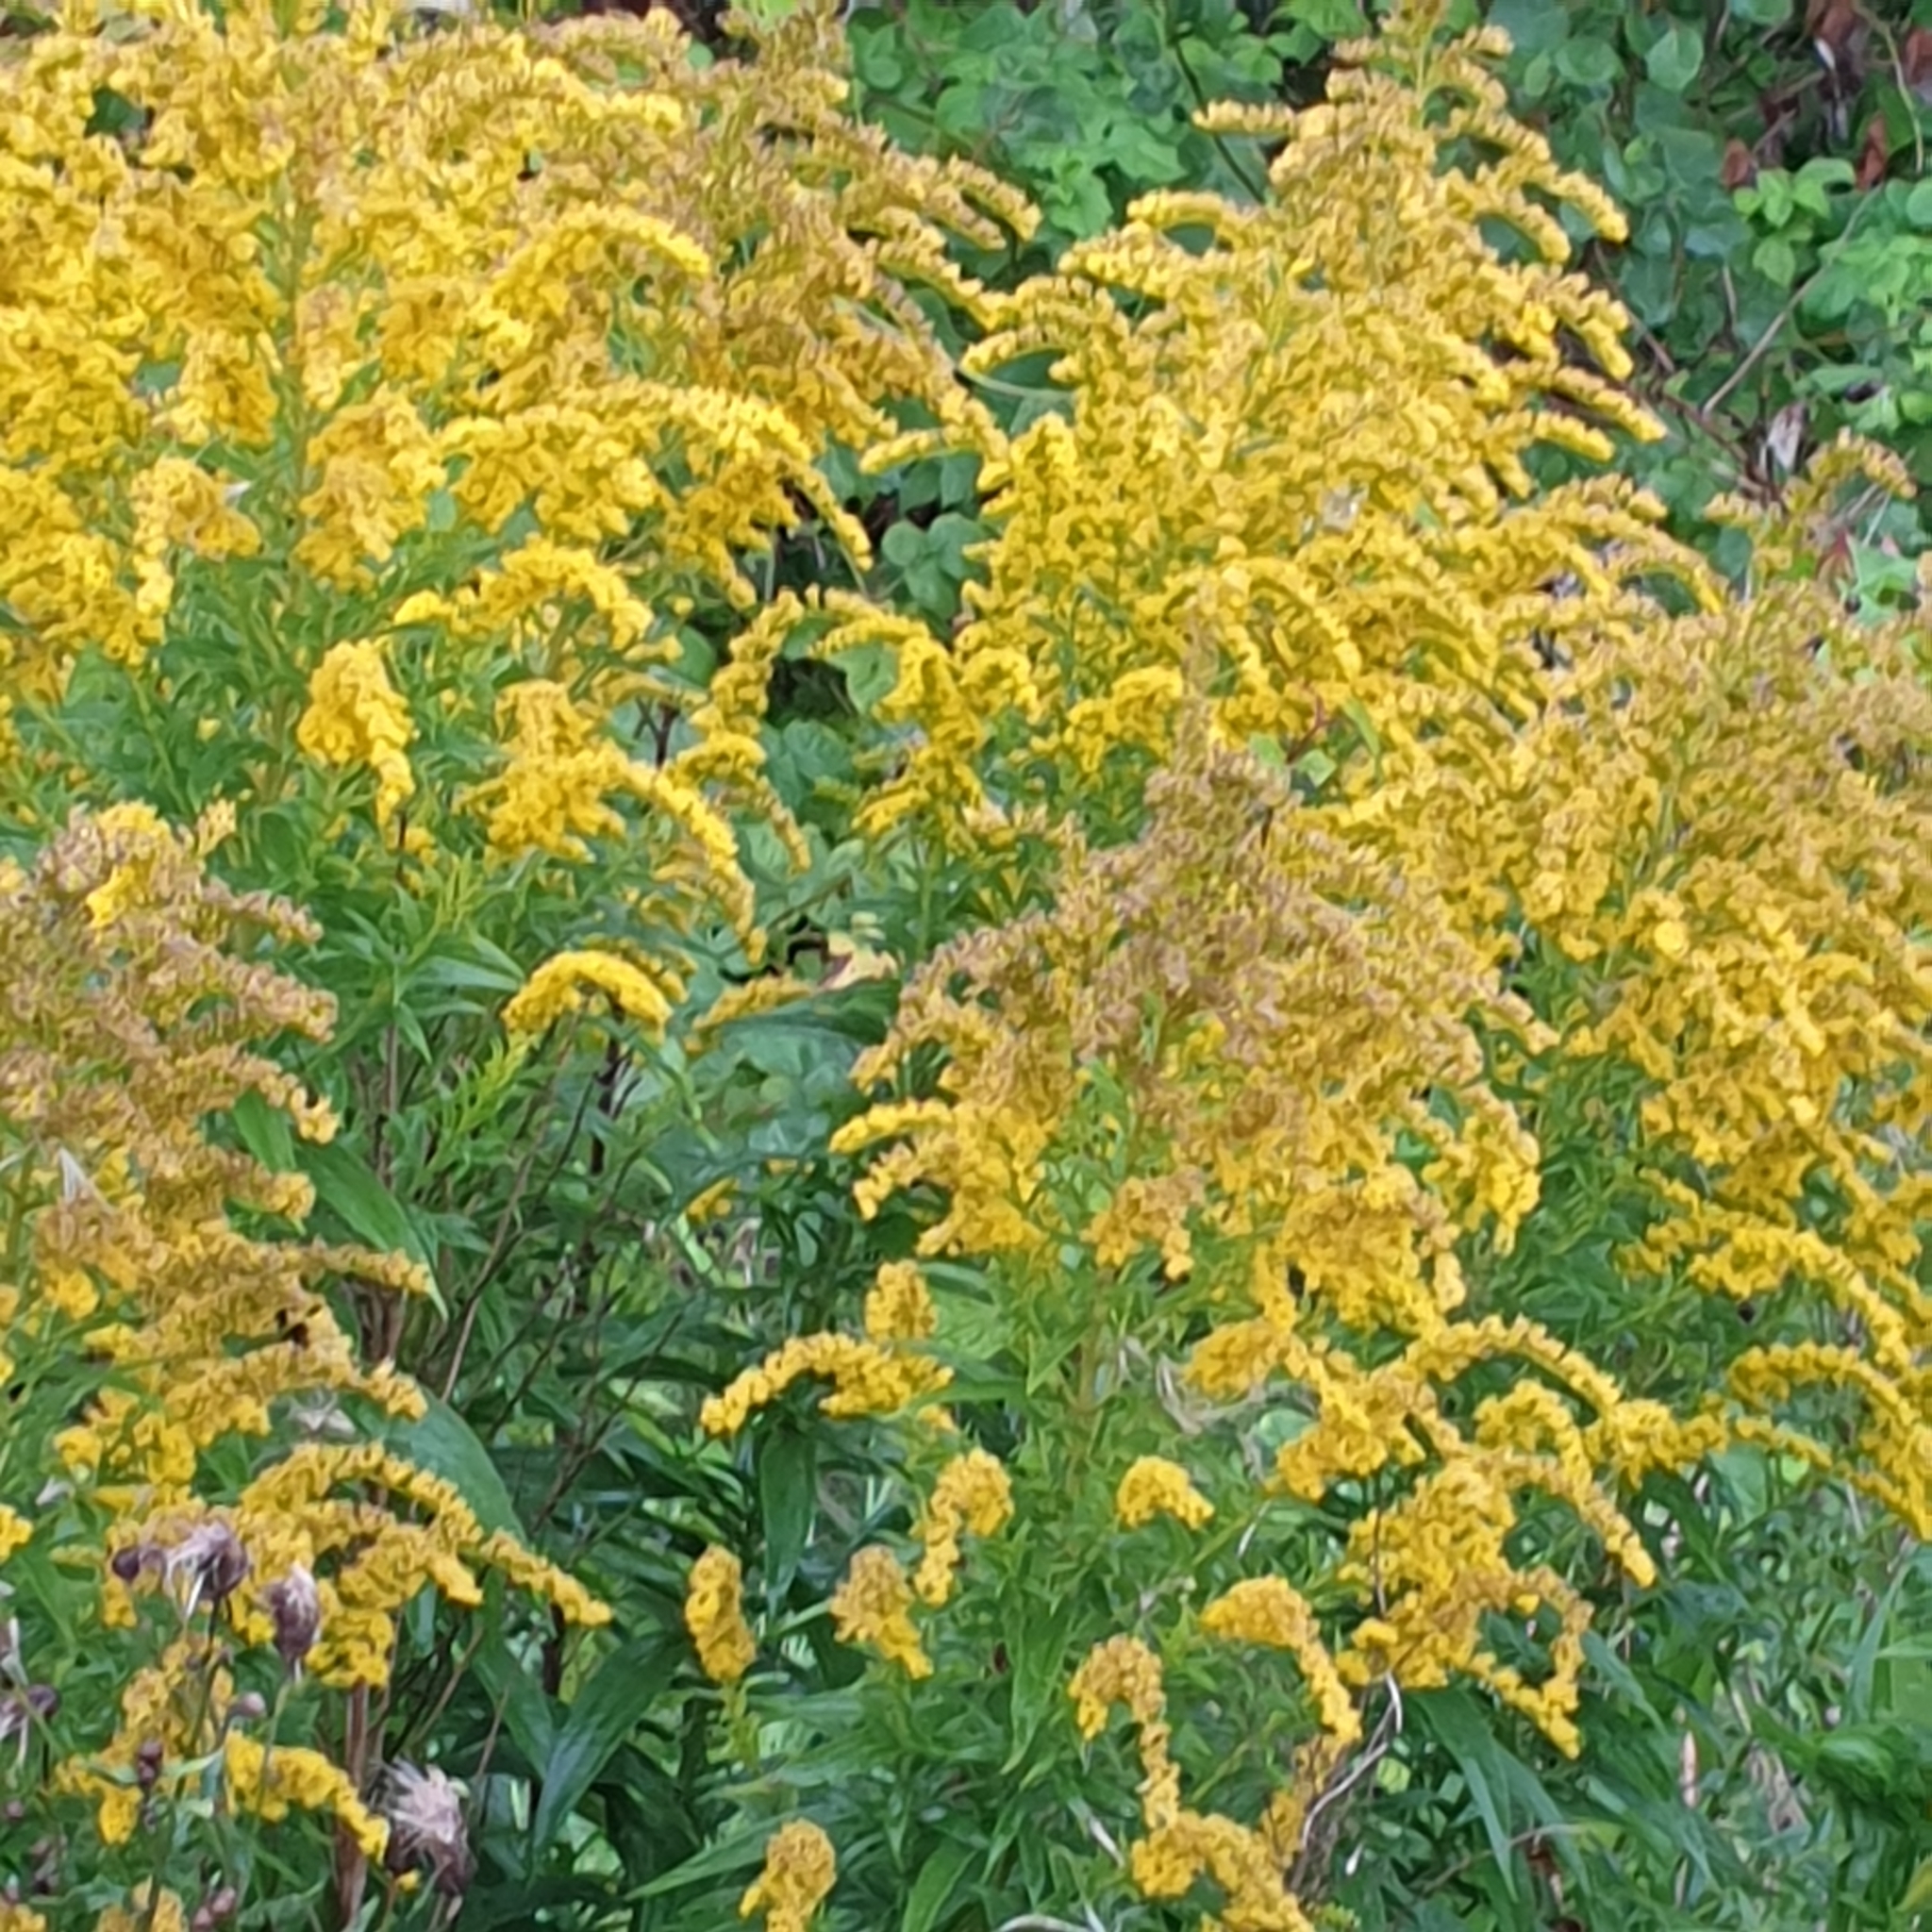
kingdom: Plantae
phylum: Tracheophyta
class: Magnoliopsida
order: Asterales
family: Asteraceae
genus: Solidago
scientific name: Solidago canadensis
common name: Canada goldenrod
